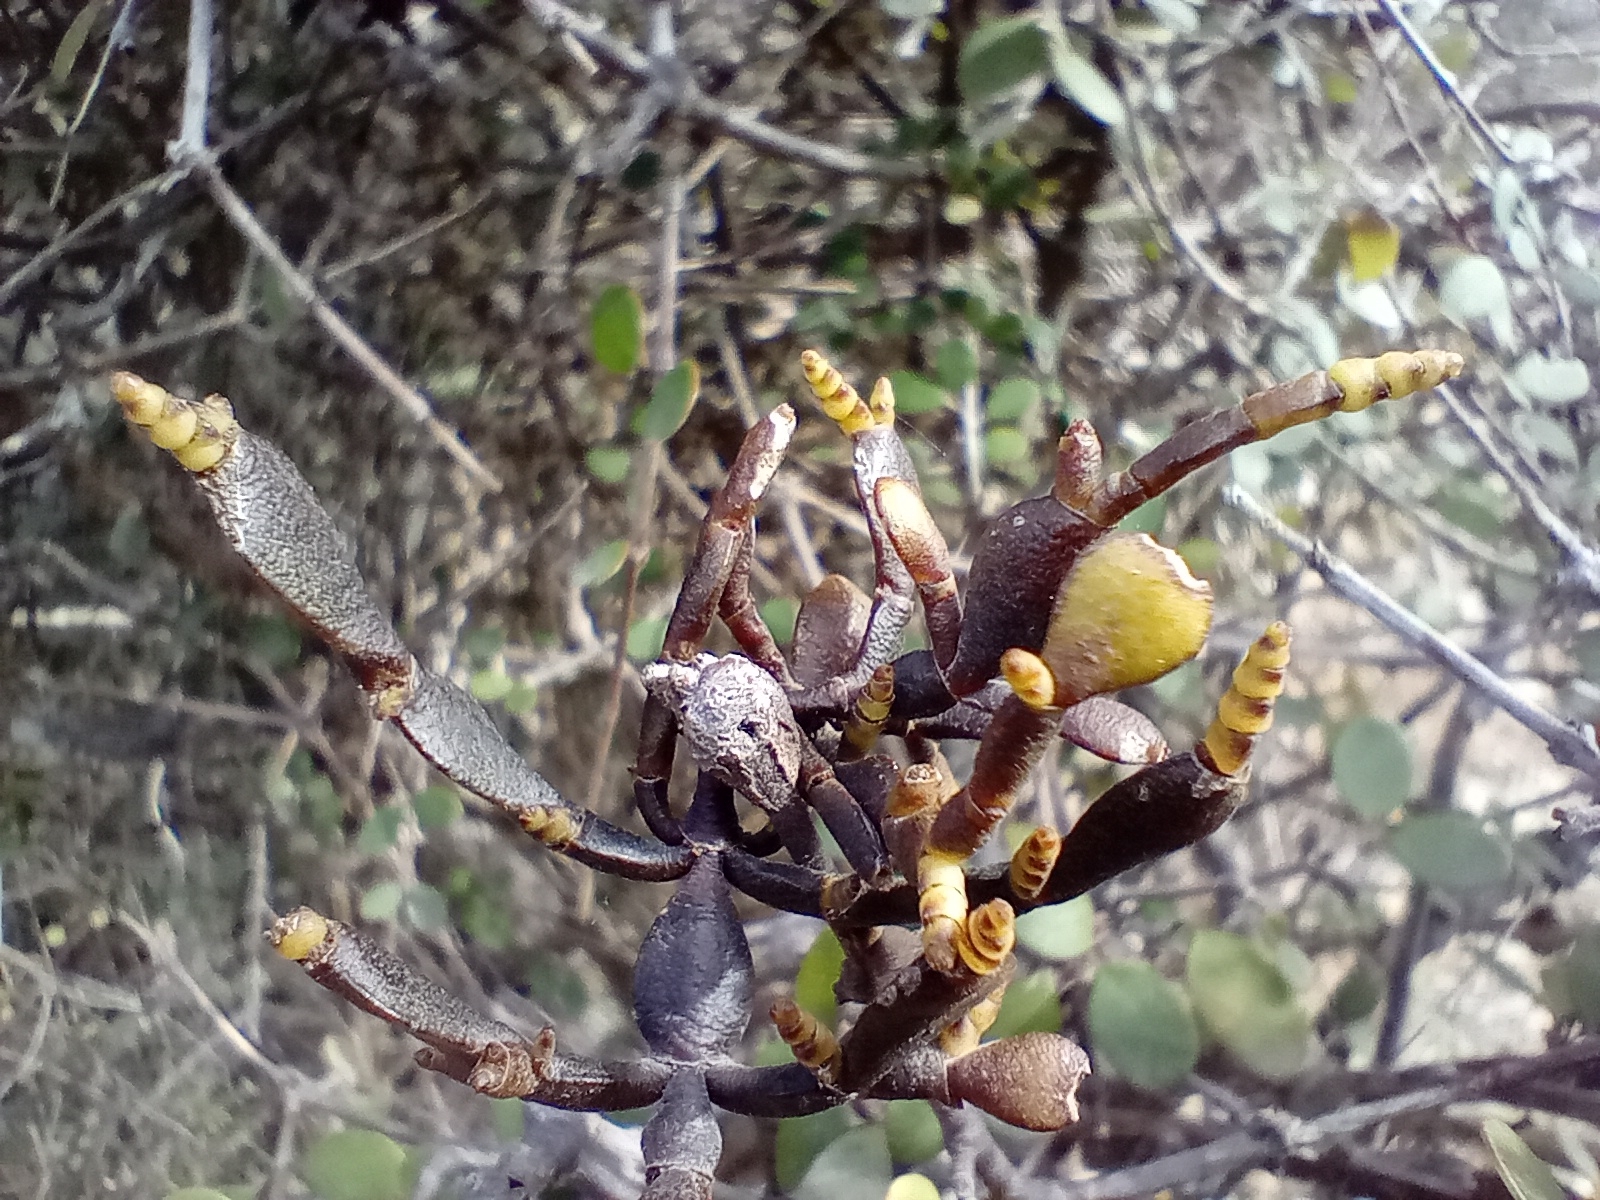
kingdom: Plantae
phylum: Tracheophyta
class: Magnoliopsida
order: Santalales
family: Viscaceae
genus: Korthalsella
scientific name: Korthalsella lindsayi
